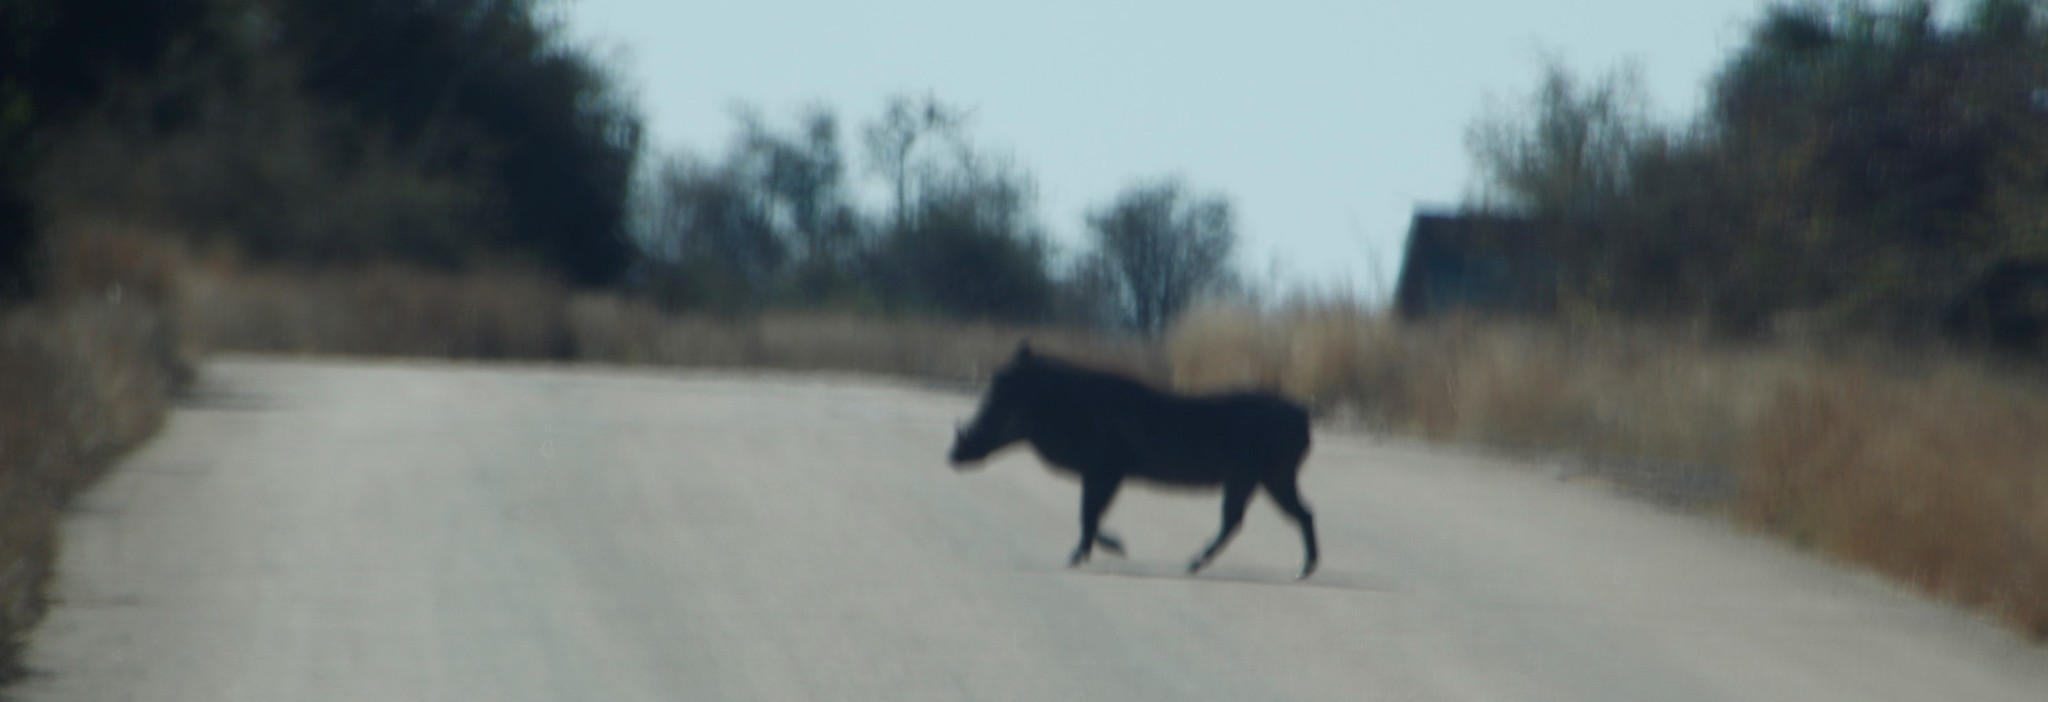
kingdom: Animalia
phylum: Chordata
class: Mammalia
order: Artiodactyla
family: Suidae
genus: Phacochoerus
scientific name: Phacochoerus africanus
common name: Common warthog
